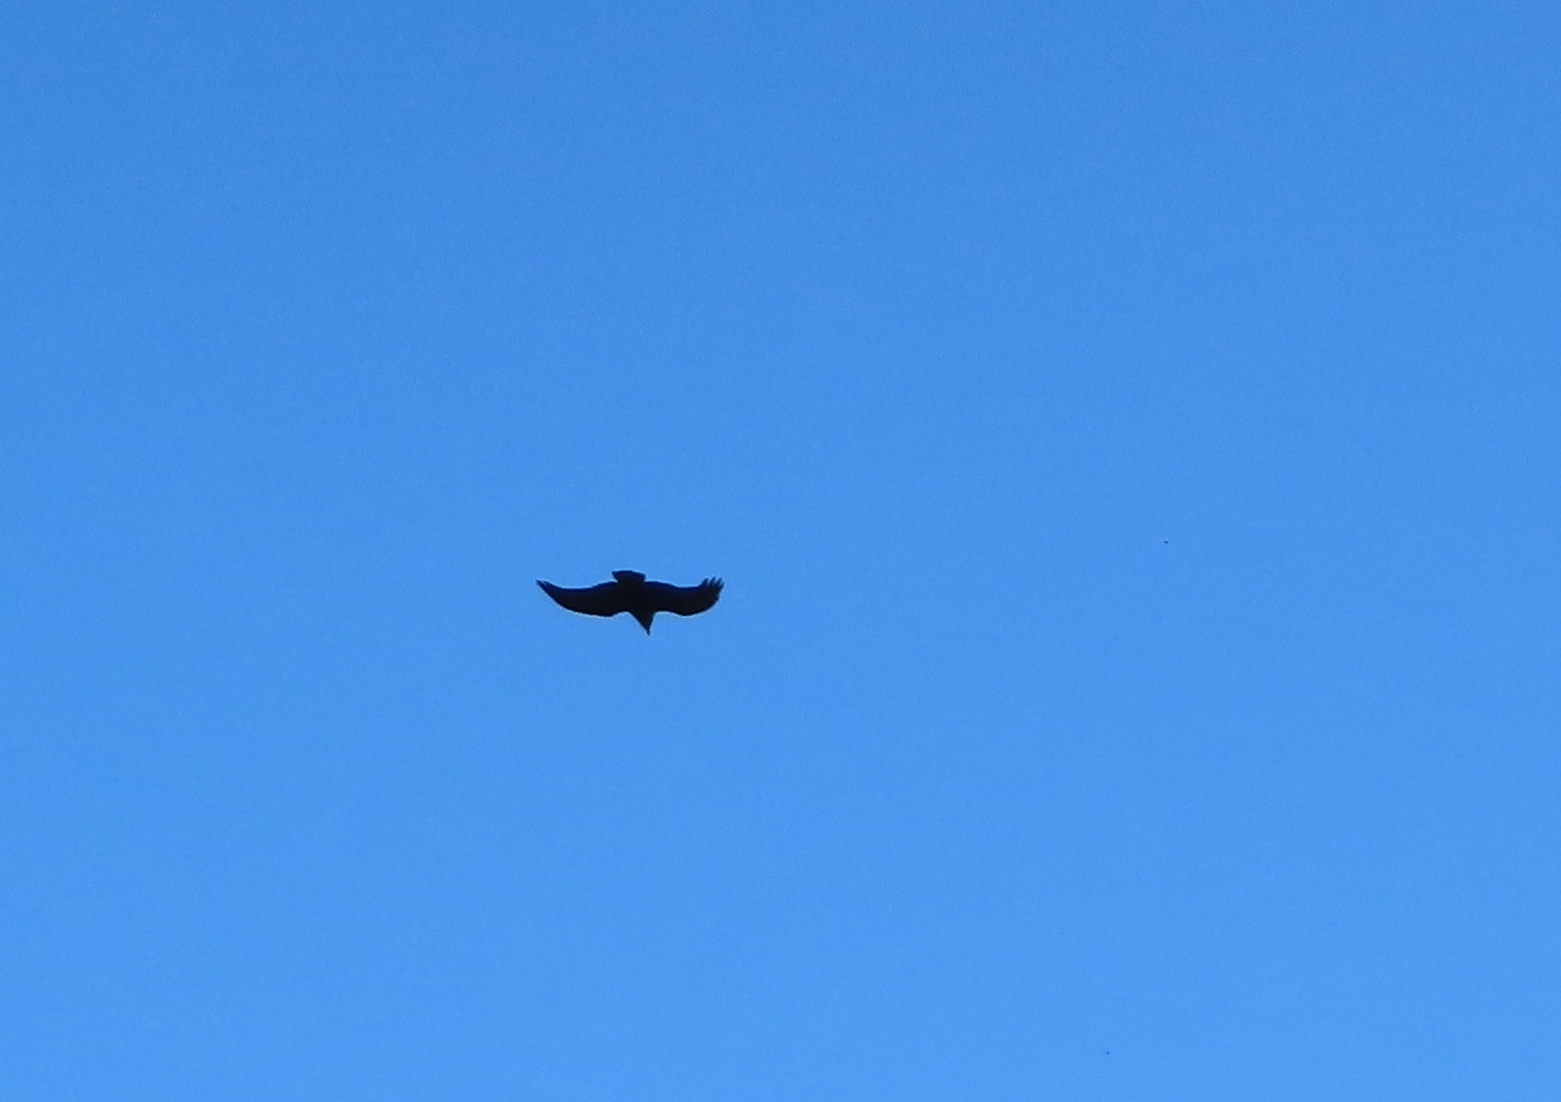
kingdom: Animalia
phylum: Chordata
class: Aves
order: Passeriformes
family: Corvidae
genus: Corvus
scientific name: Corvus capensis
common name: Cape crow
